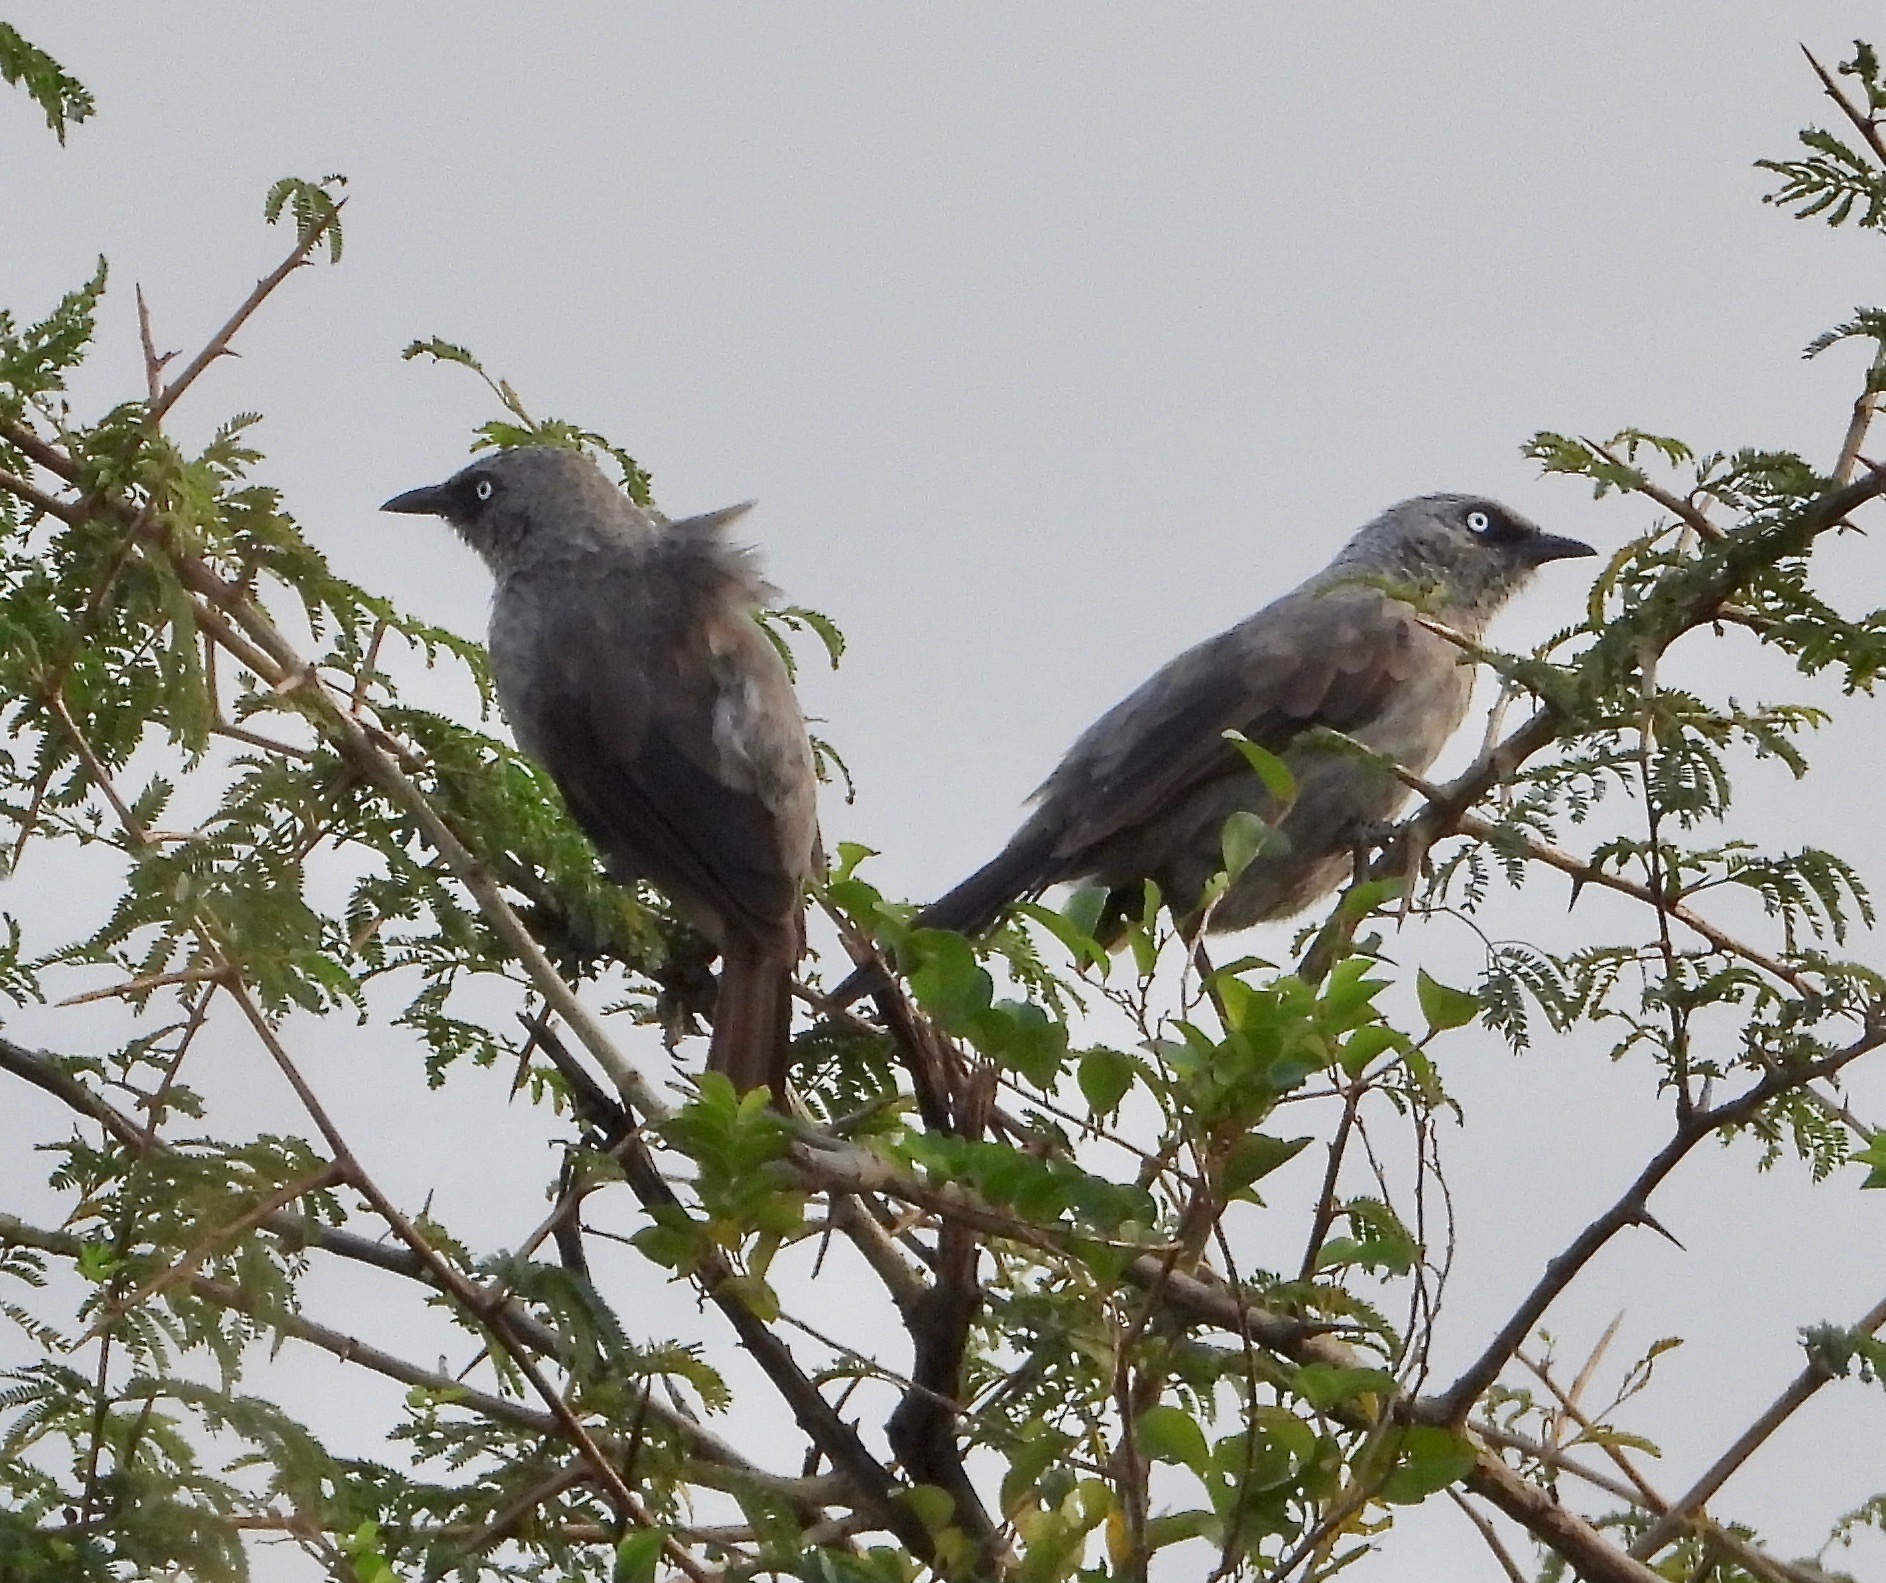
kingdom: Animalia
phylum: Chordata
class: Aves
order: Passeriformes
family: Leiothrichidae
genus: Turdoides
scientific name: Turdoides sharpei
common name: Black-lored babbler
